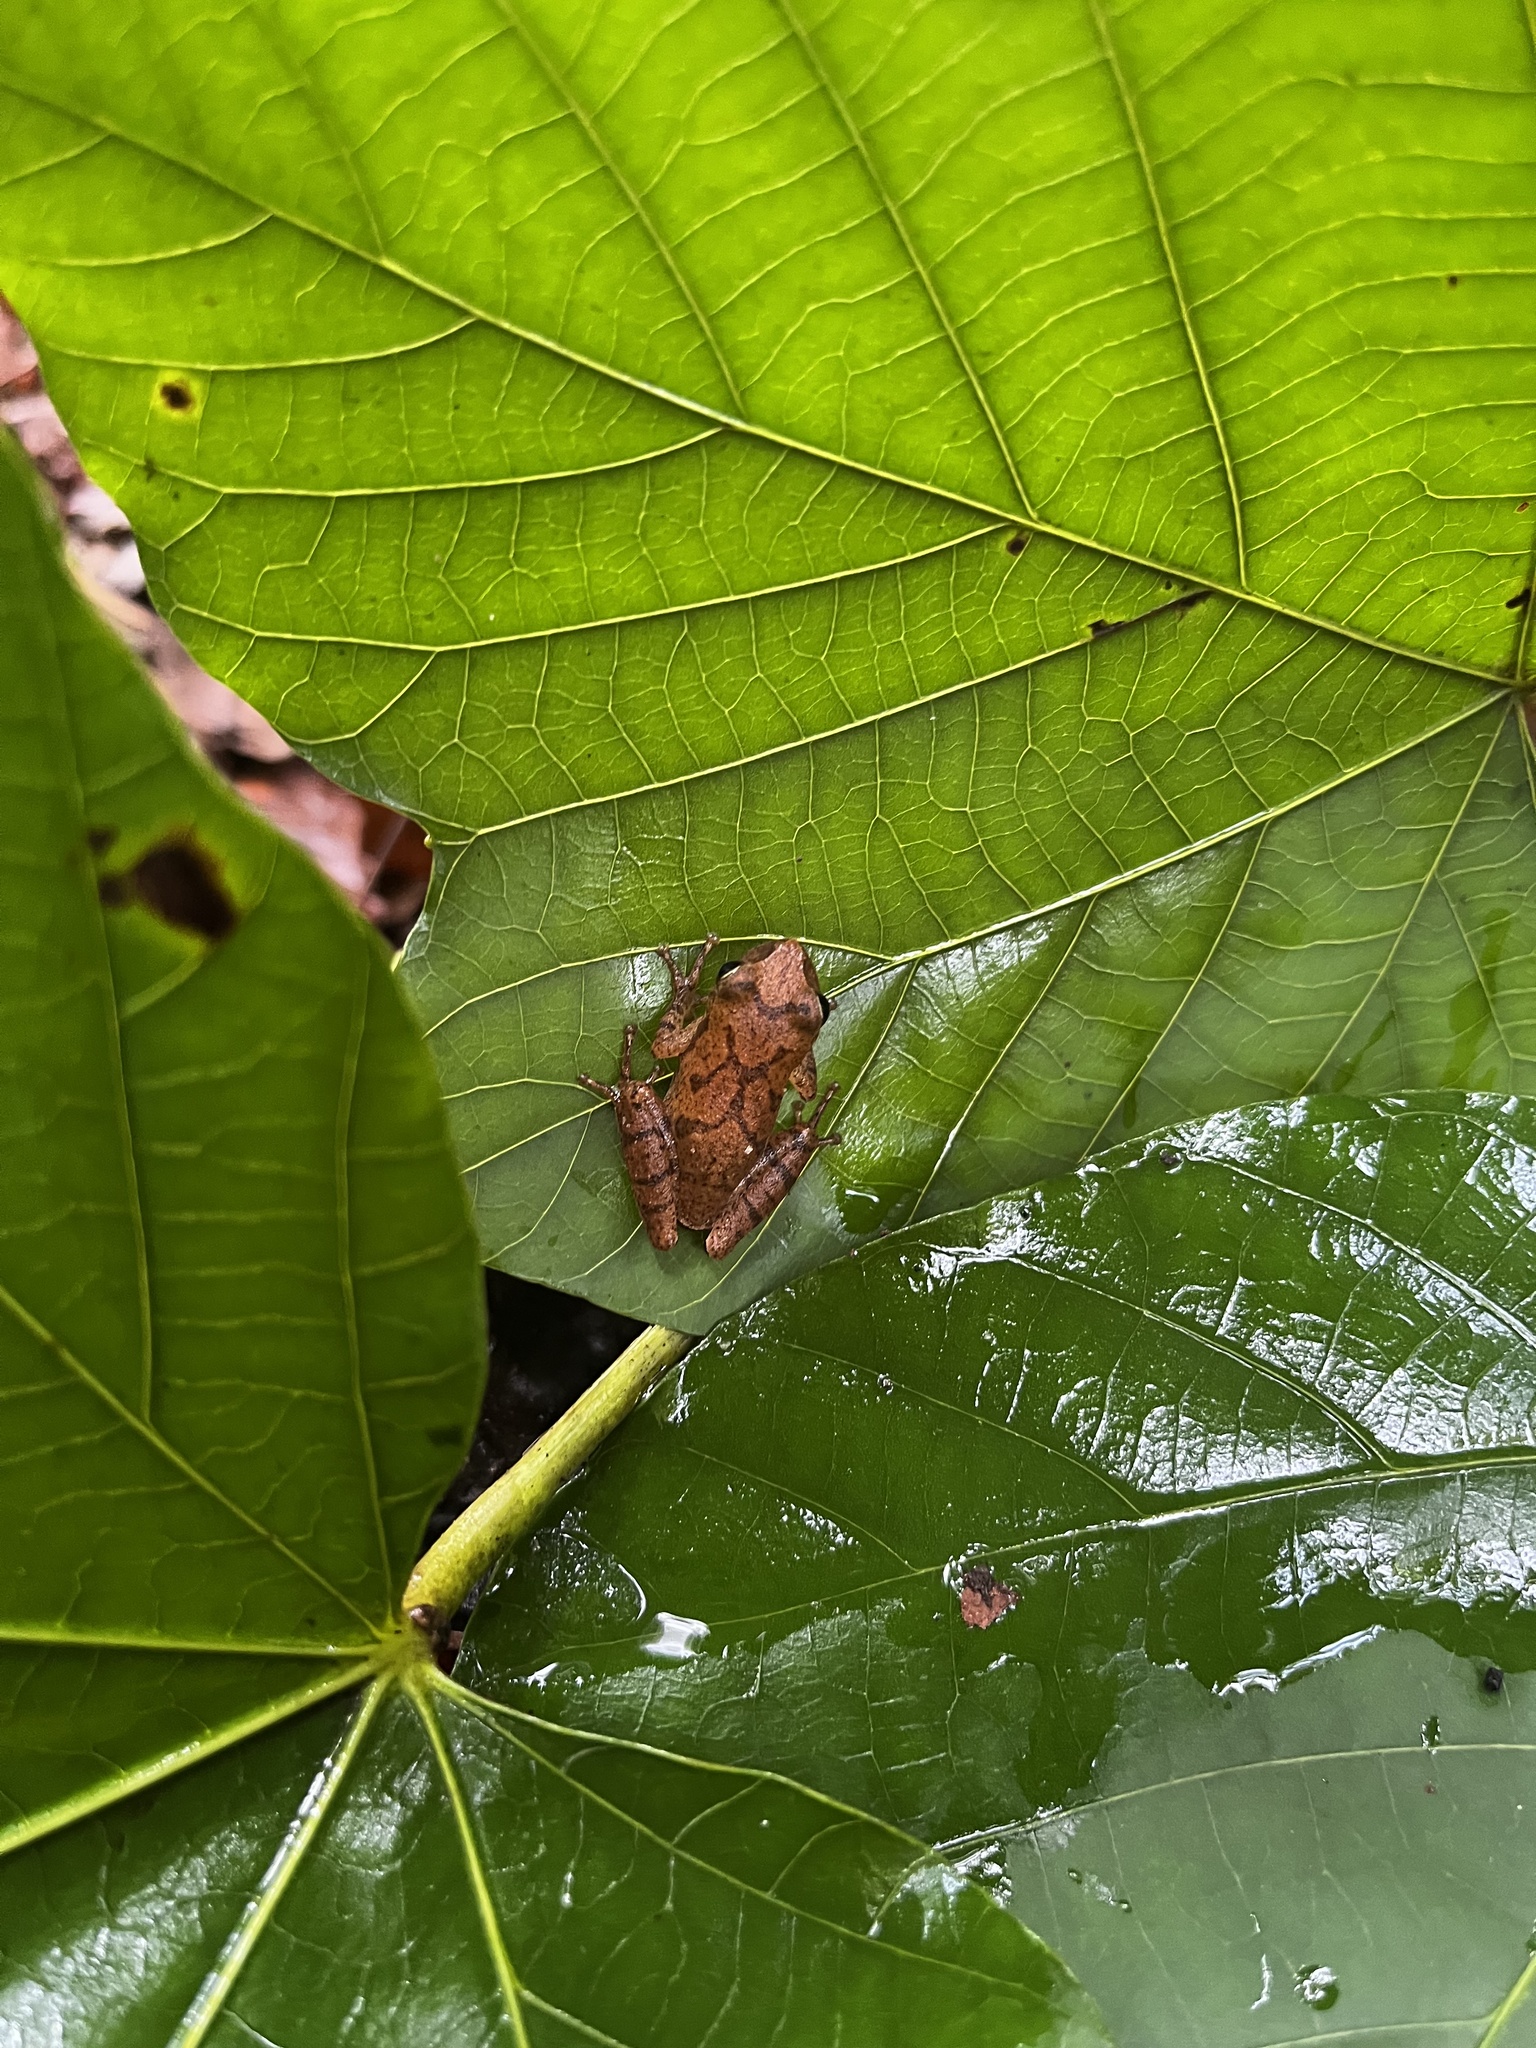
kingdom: Animalia
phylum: Chordata
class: Amphibia
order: Anura
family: Hylidae
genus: Pseudacris
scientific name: Pseudacris crucifer
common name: Spring peeper
